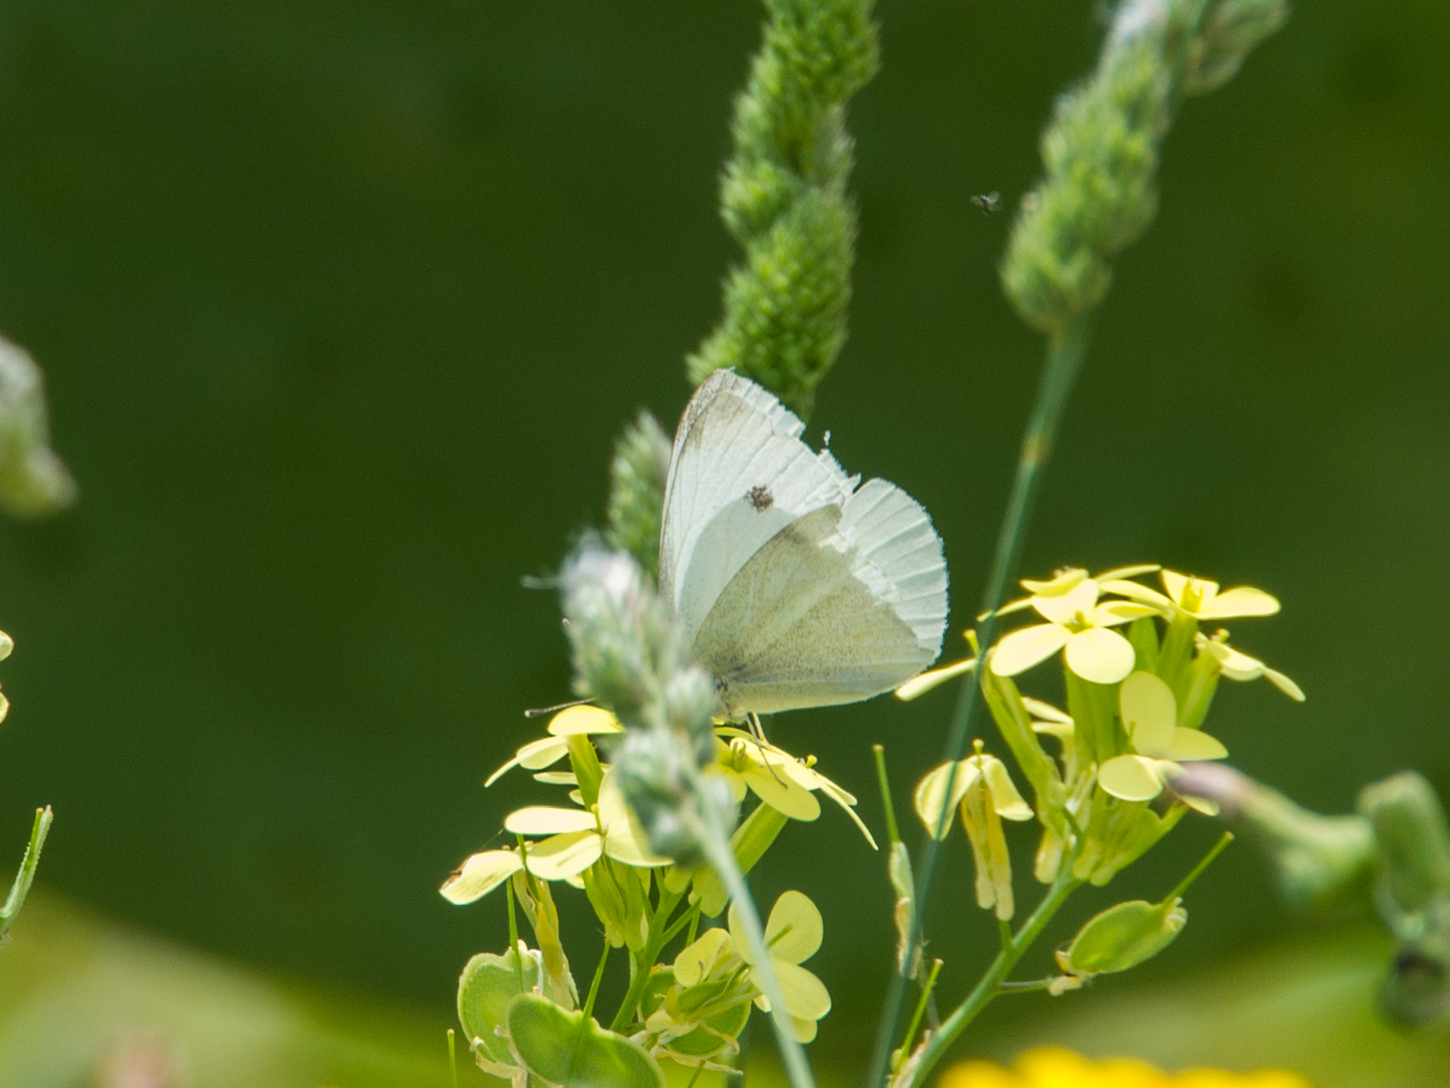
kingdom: Animalia
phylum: Arthropoda
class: Insecta
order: Lepidoptera
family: Pieridae
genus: Pieris
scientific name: Pieris rapae
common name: Small white
